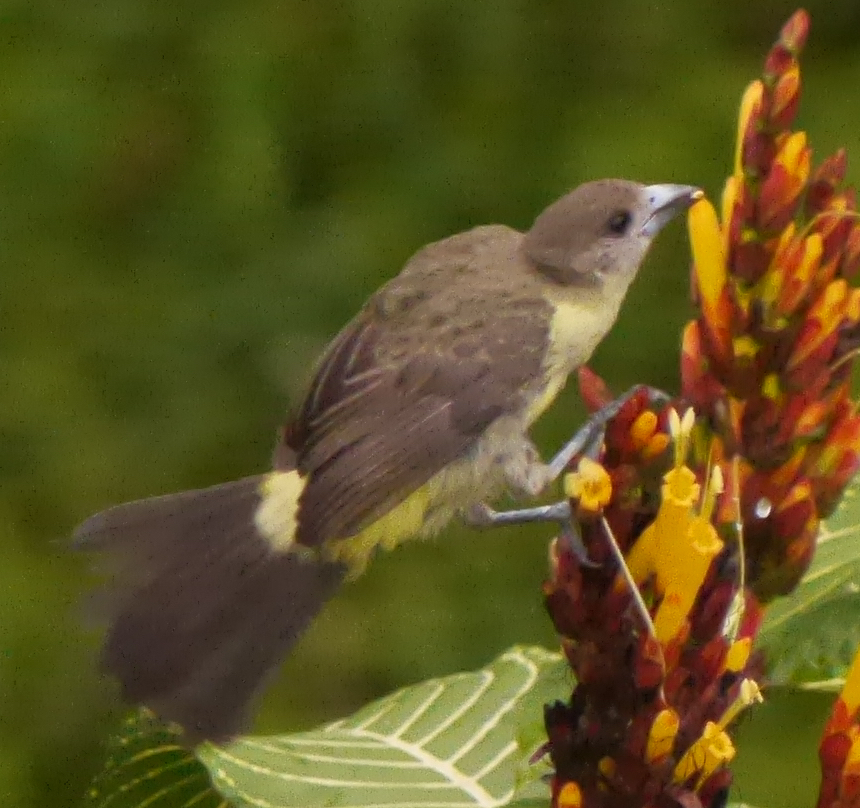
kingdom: Animalia
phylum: Chordata
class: Aves
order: Passeriformes
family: Thraupidae
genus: Ramphocelus
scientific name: Ramphocelus flammigerus
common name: Flame-rumped tanager
